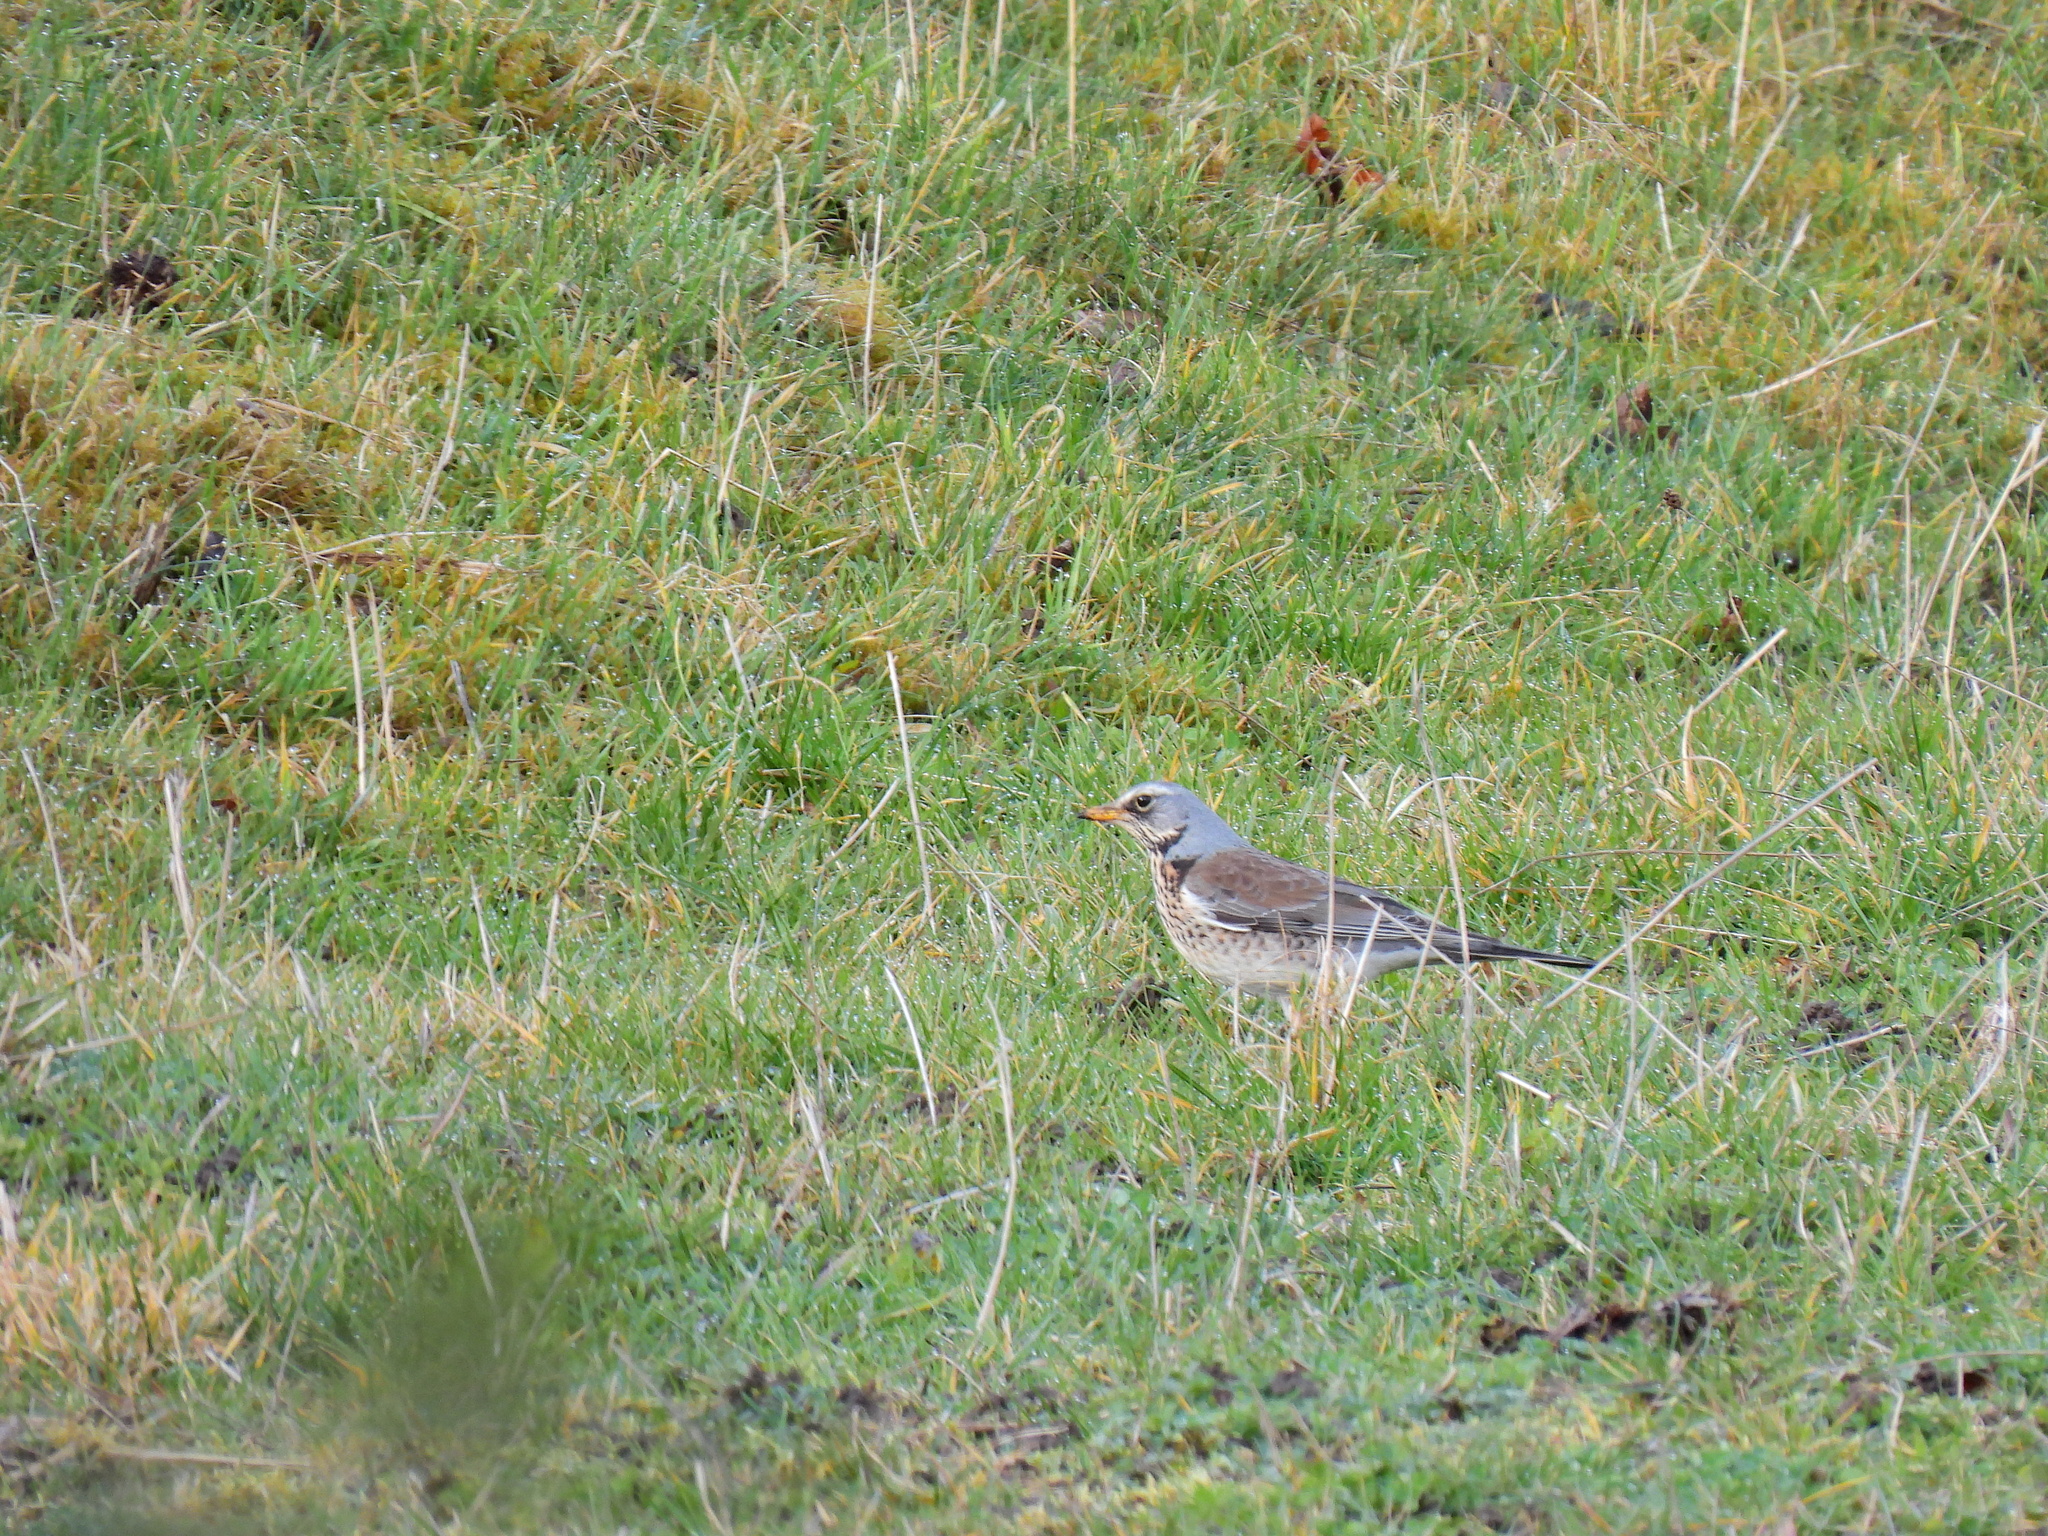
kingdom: Animalia
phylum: Chordata
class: Aves
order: Passeriformes
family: Turdidae
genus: Turdus
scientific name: Turdus pilaris
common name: Fieldfare
